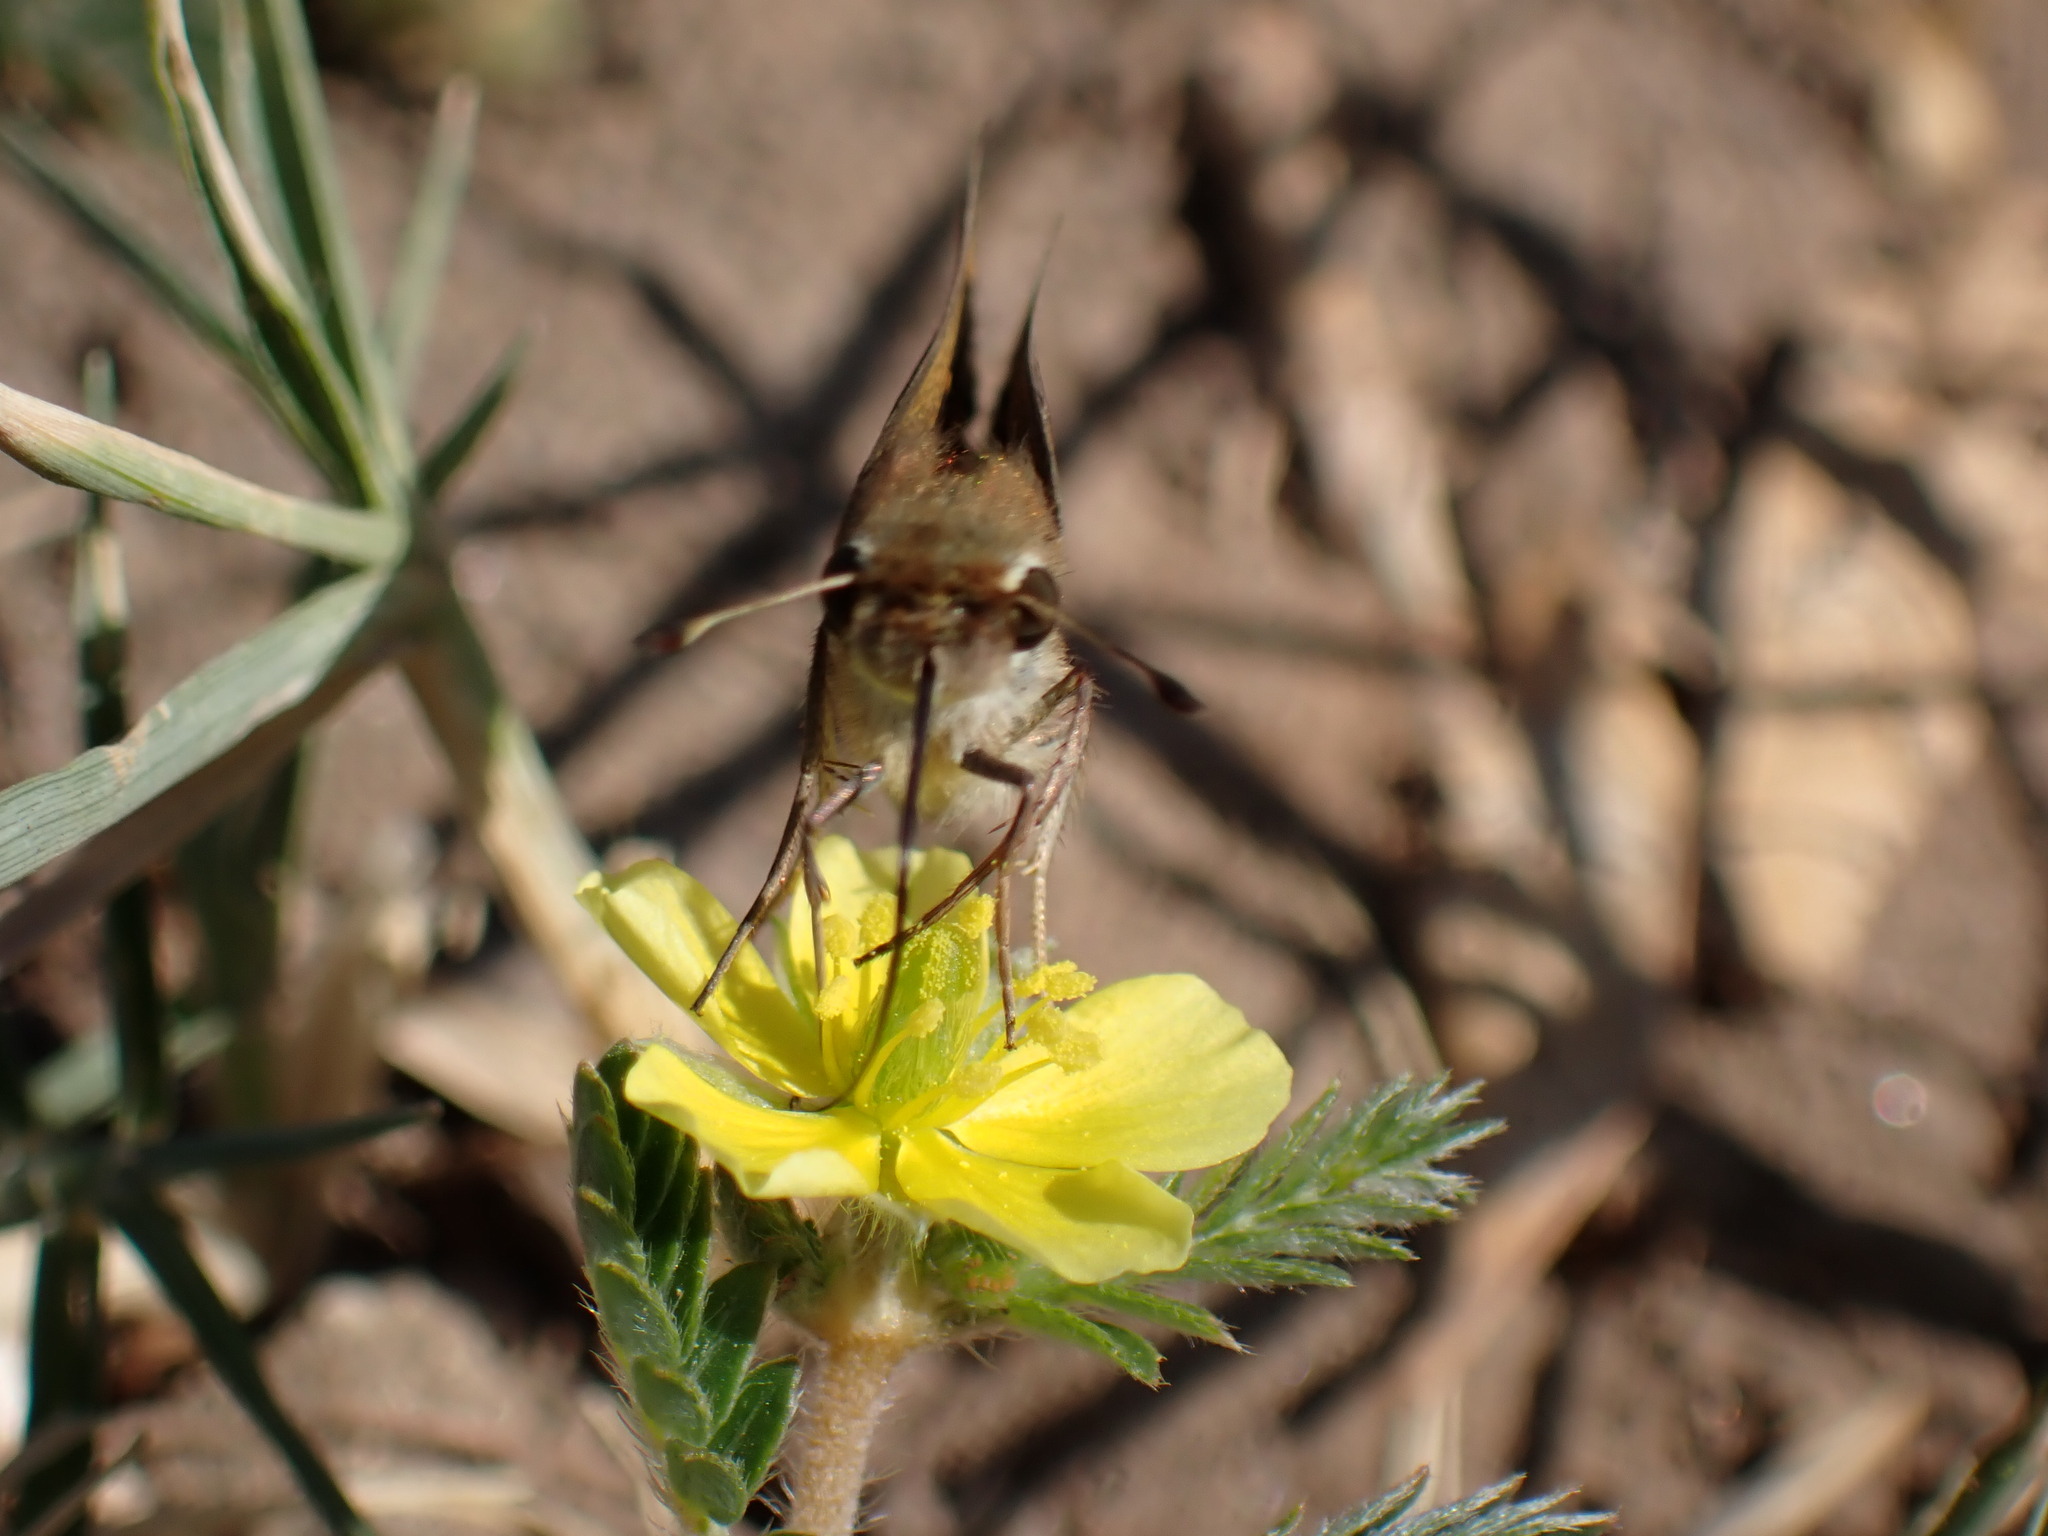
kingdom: Animalia
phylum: Arthropoda
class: Insecta
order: Lepidoptera
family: Hesperiidae
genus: Hylephila
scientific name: Hylephila phyleus
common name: Fiery skipper
